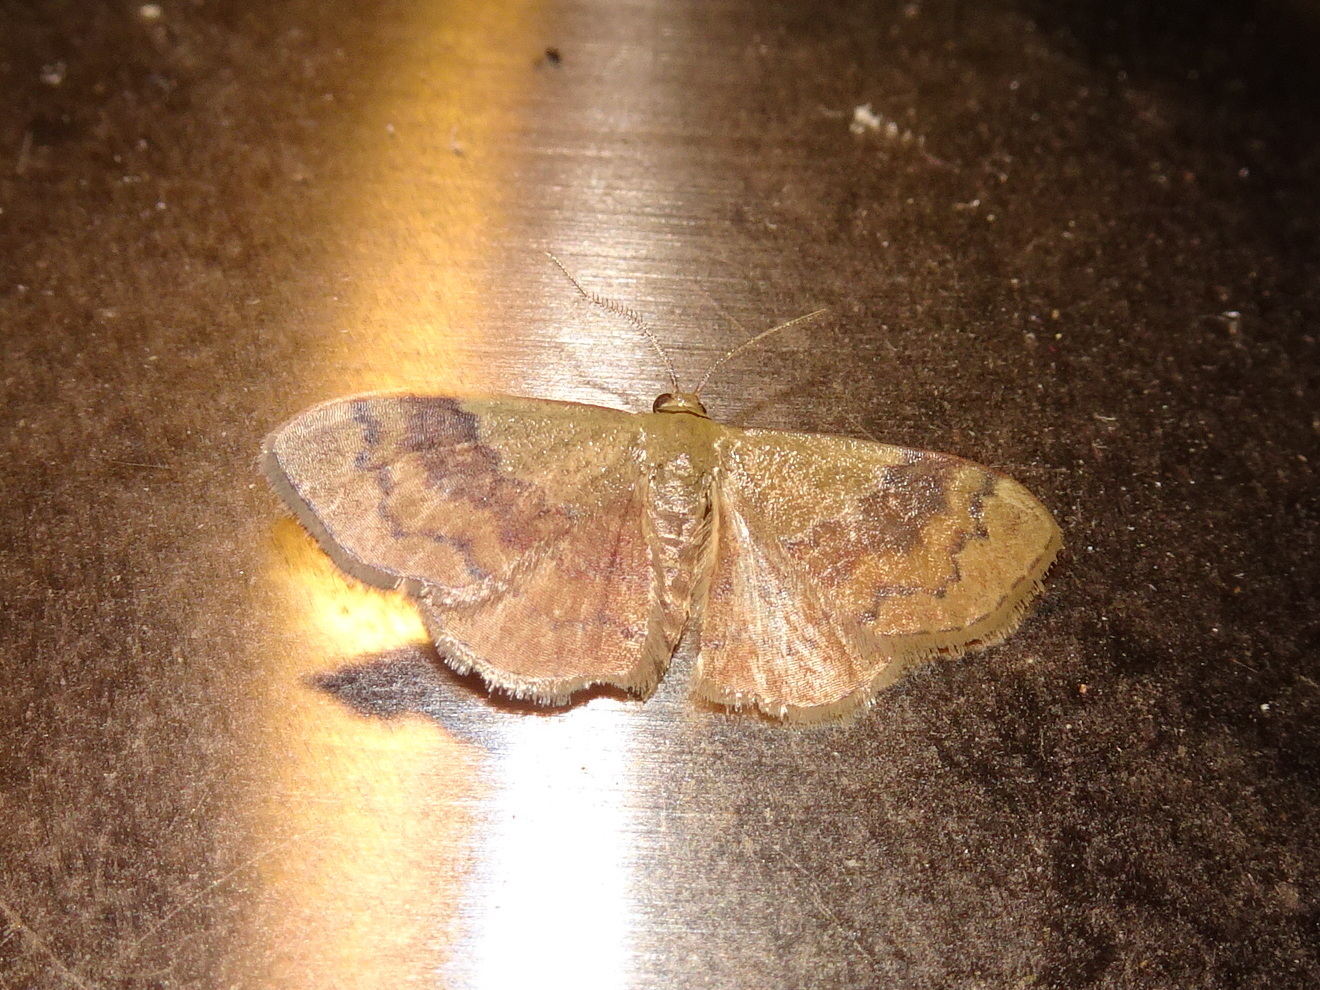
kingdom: Animalia
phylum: Arthropoda
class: Insecta
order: Lepidoptera
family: Geometridae
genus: Leptostales
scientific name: Leptostales ferruminaria
